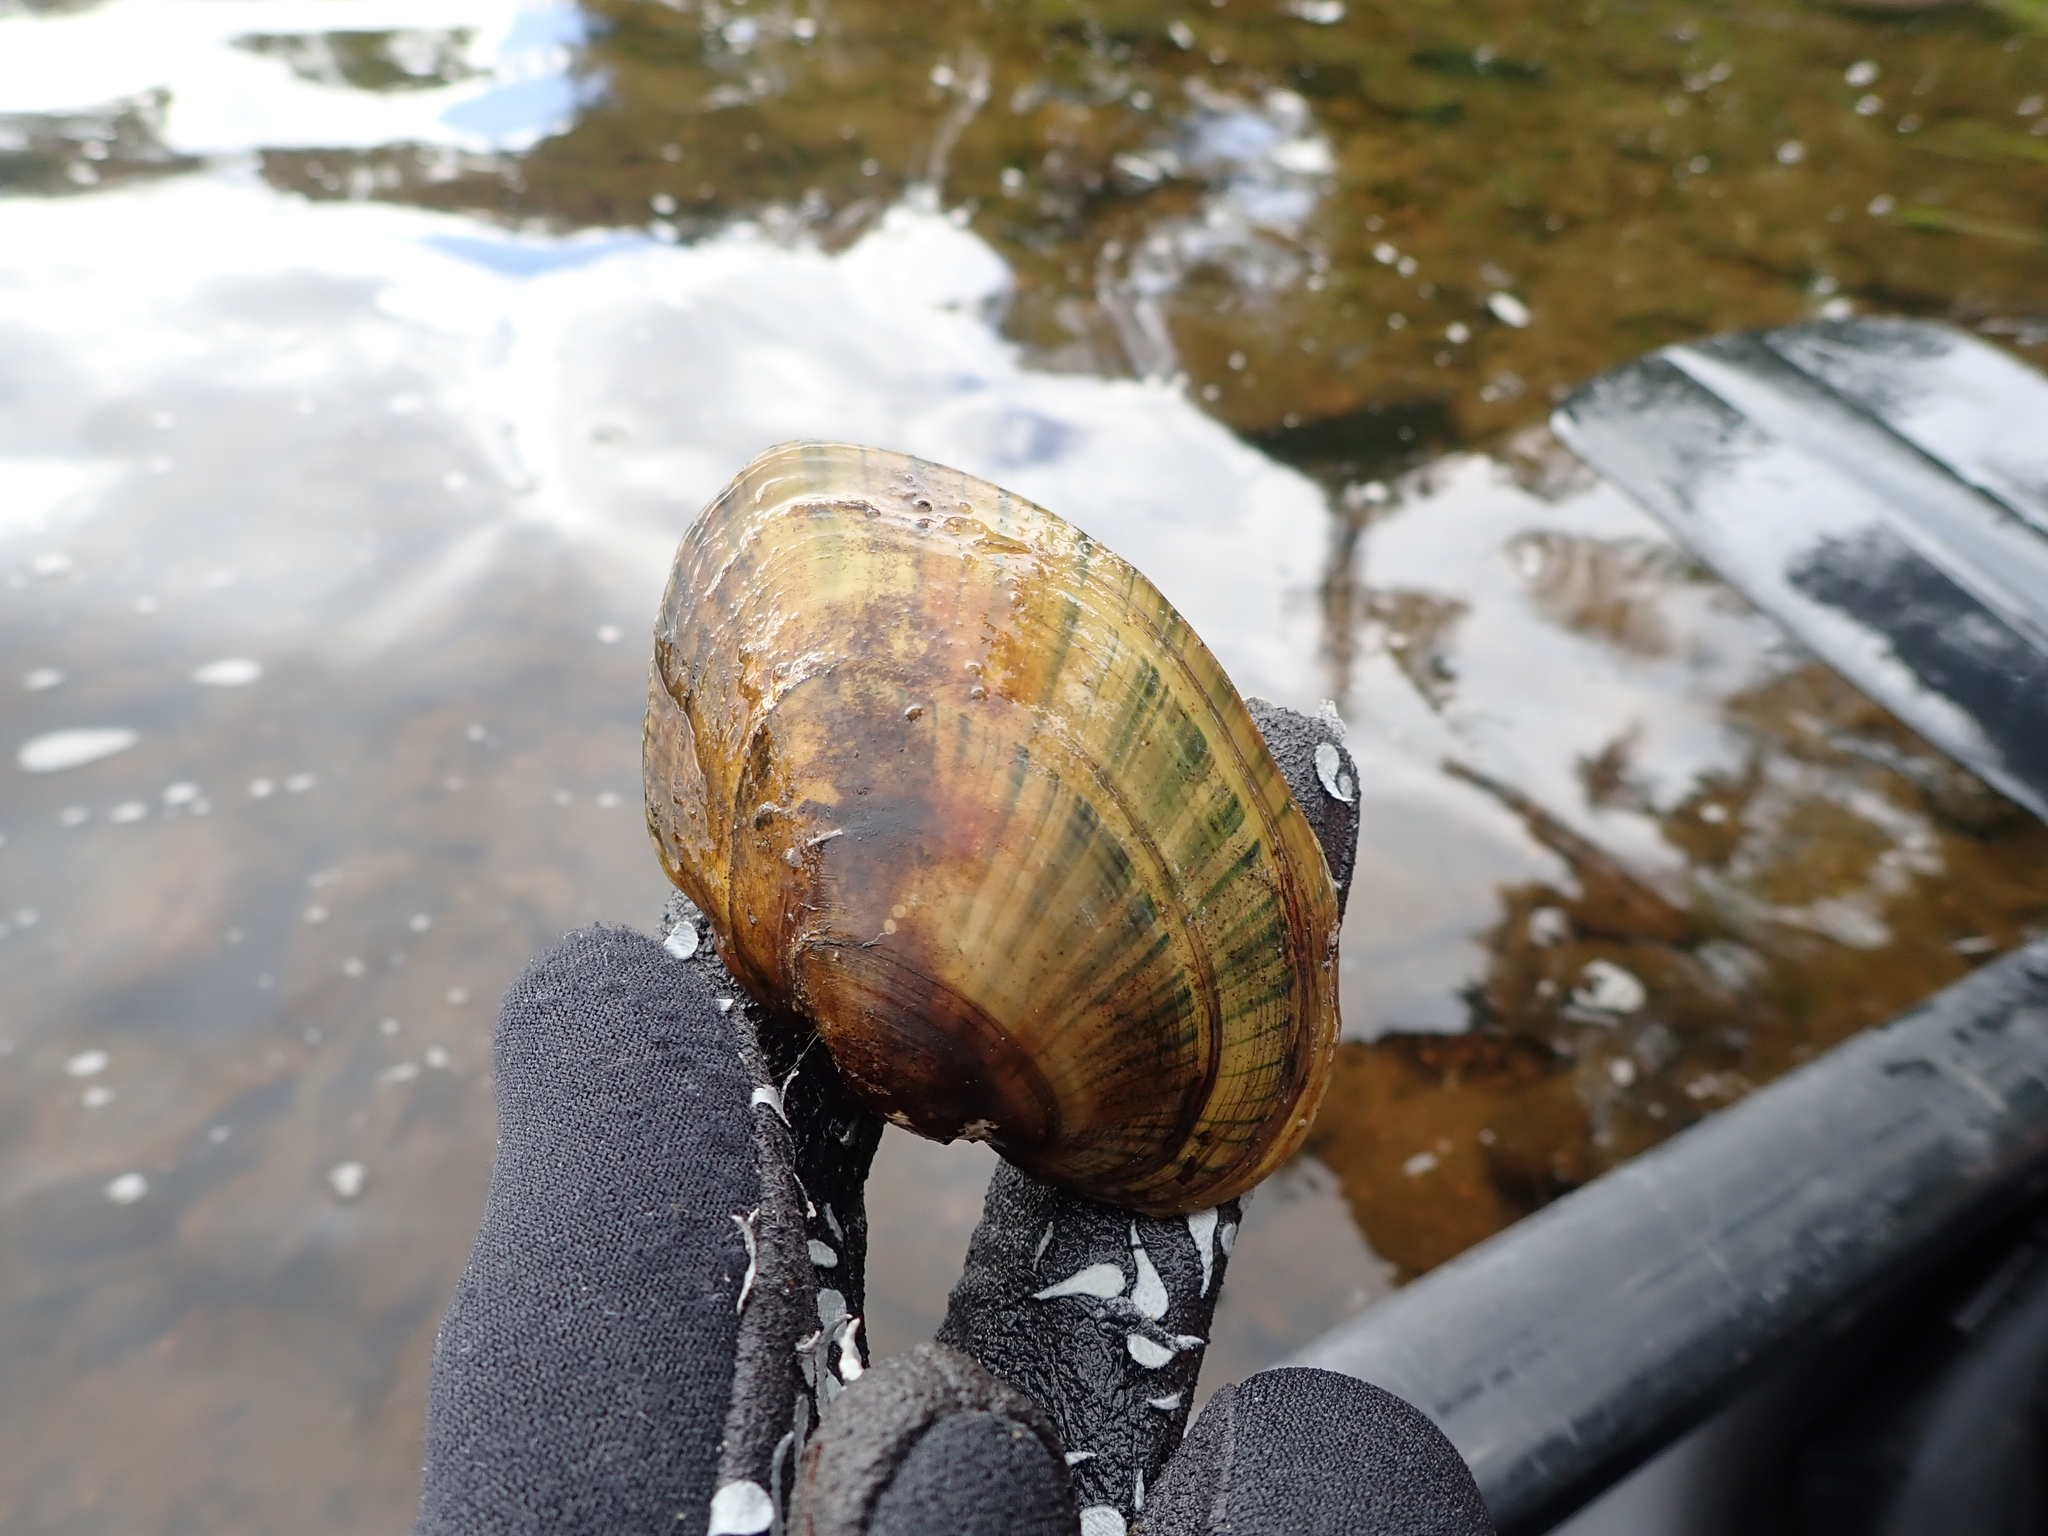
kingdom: Animalia
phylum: Mollusca
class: Bivalvia
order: Unionida
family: Unionidae
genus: Lampsilis
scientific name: Lampsilis cardium
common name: Plain pocketbook
